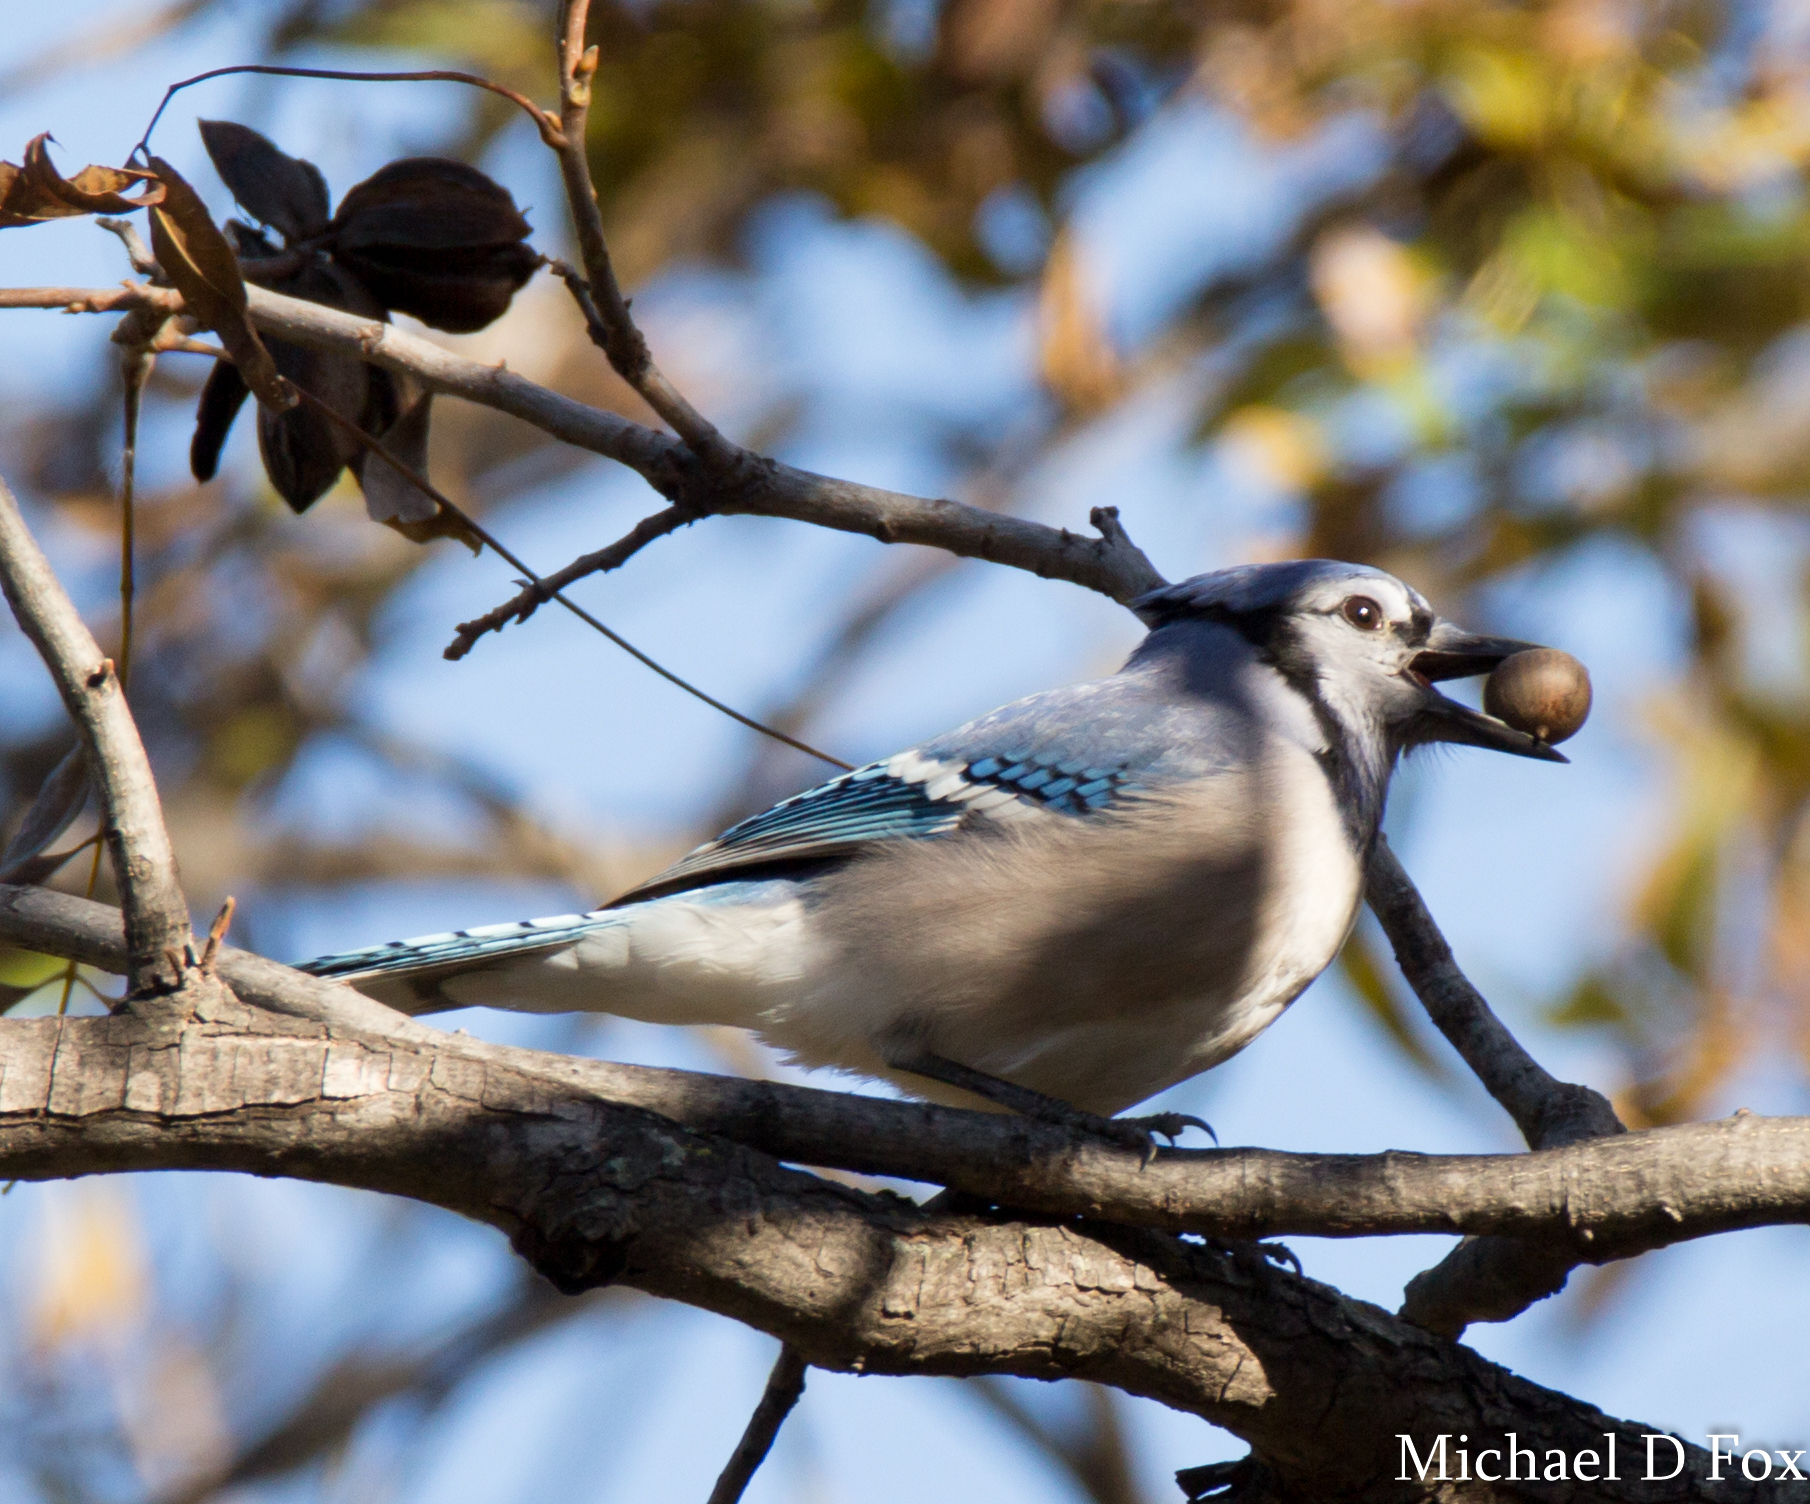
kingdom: Animalia
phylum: Chordata
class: Aves
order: Passeriformes
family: Corvidae
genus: Cyanocitta
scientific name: Cyanocitta cristata
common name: Blue jay
